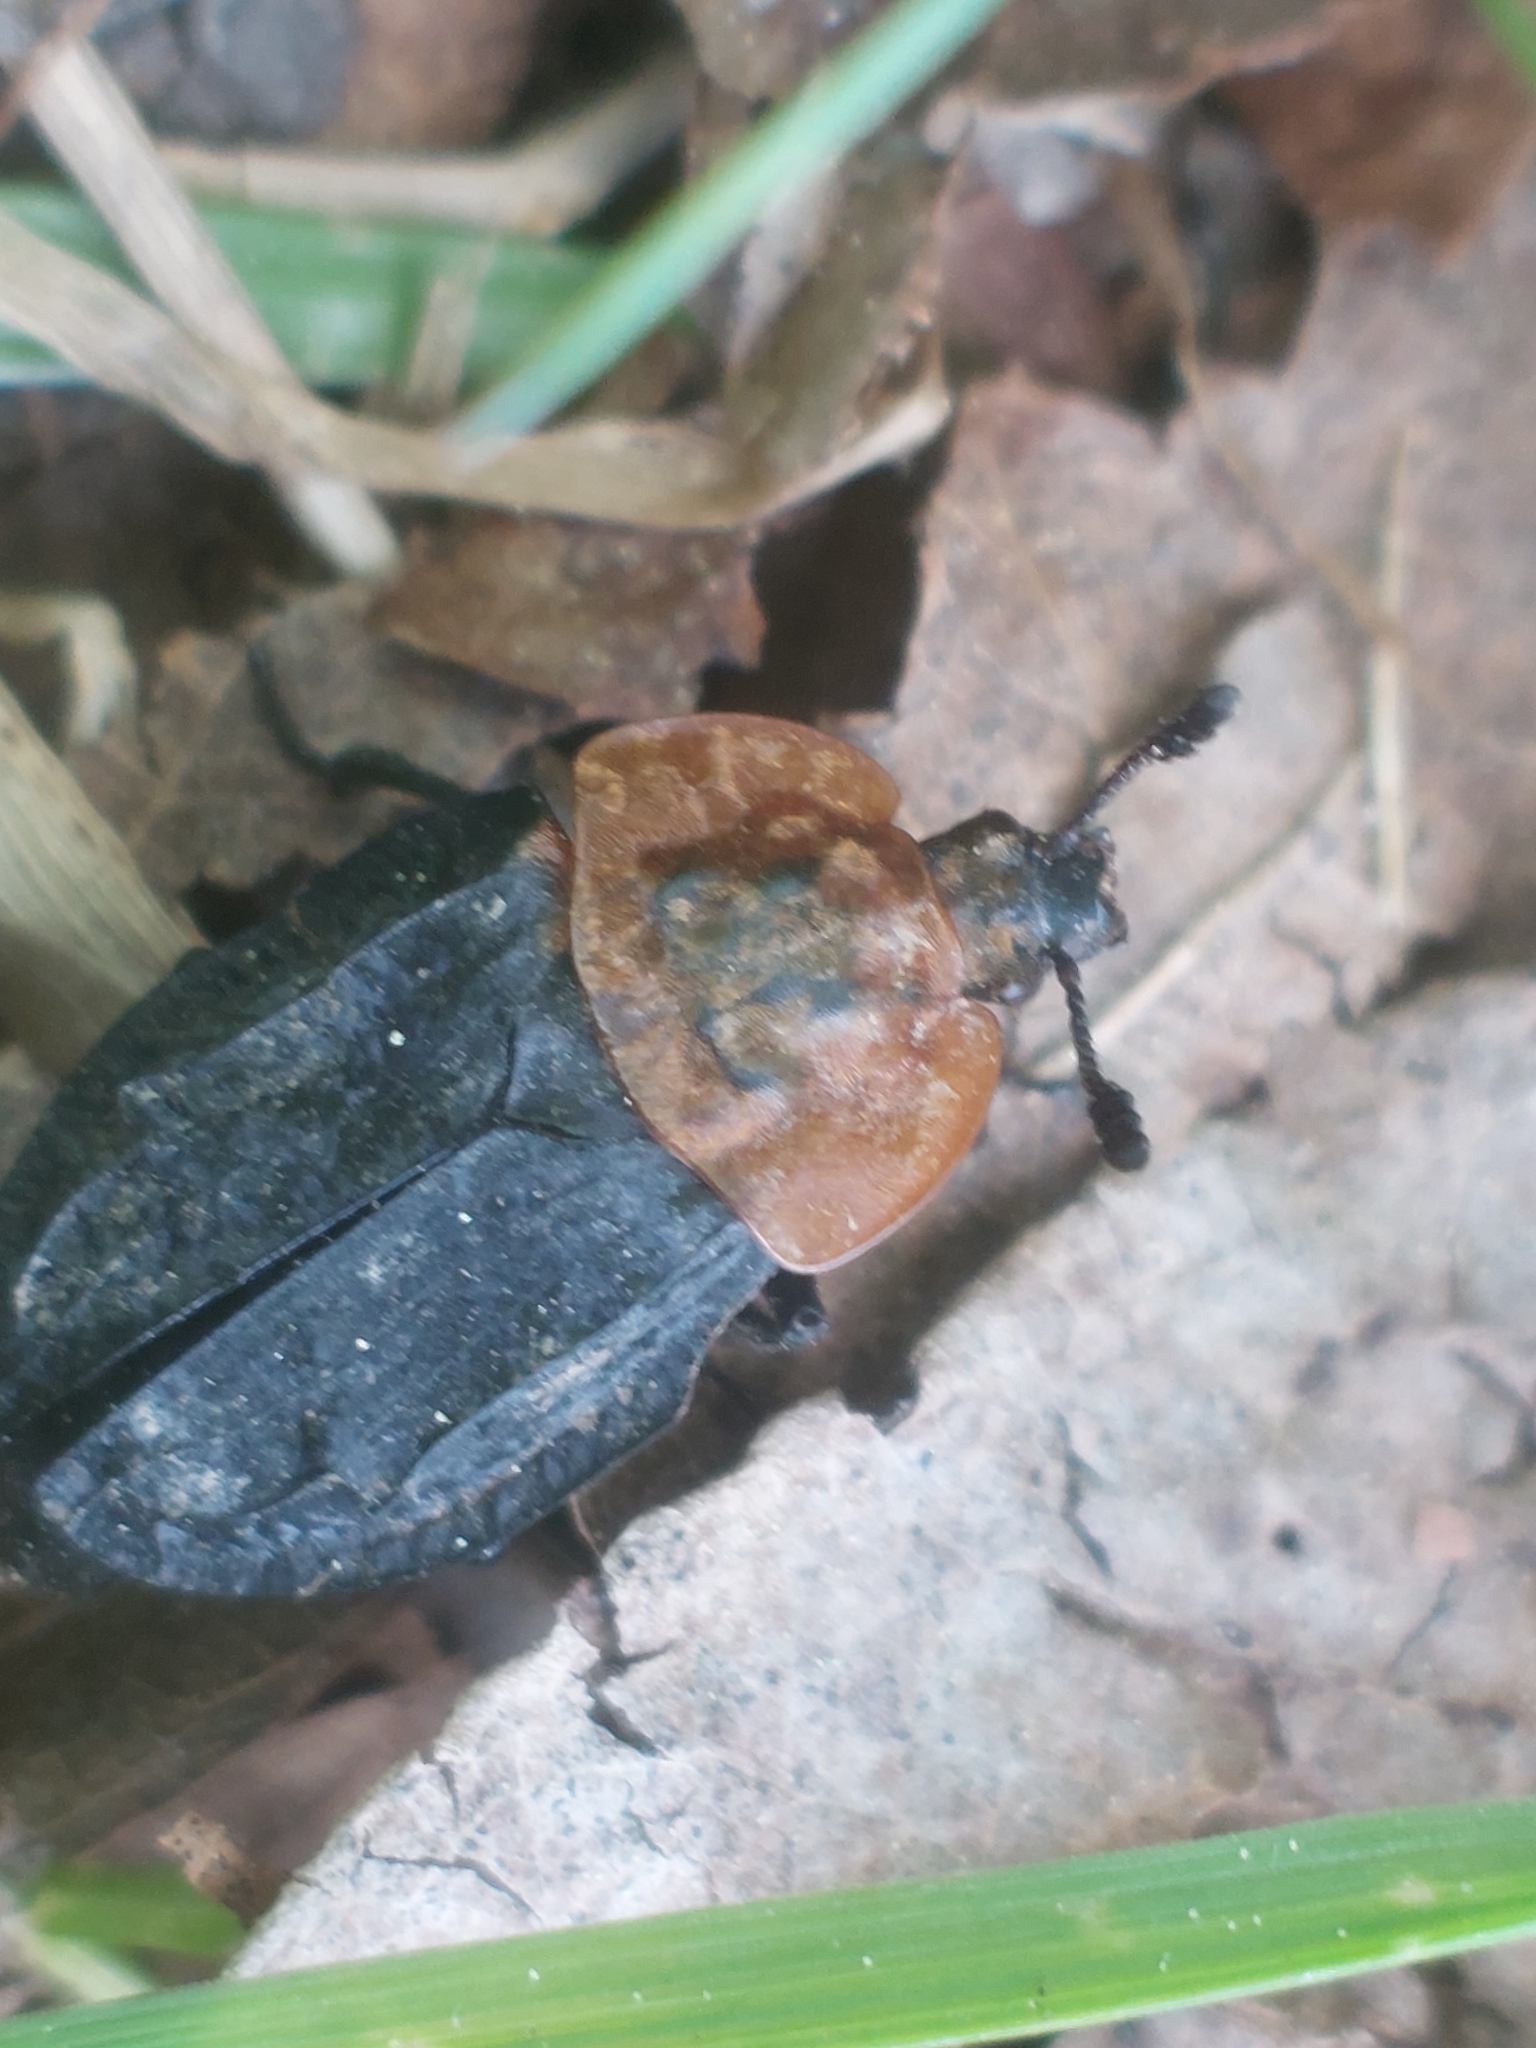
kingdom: Animalia
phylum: Arthropoda
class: Insecta
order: Coleoptera
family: Staphylinidae
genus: Oiceoptoma
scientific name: Oiceoptoma thoracicum
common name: Red-breasted carrion beetle
